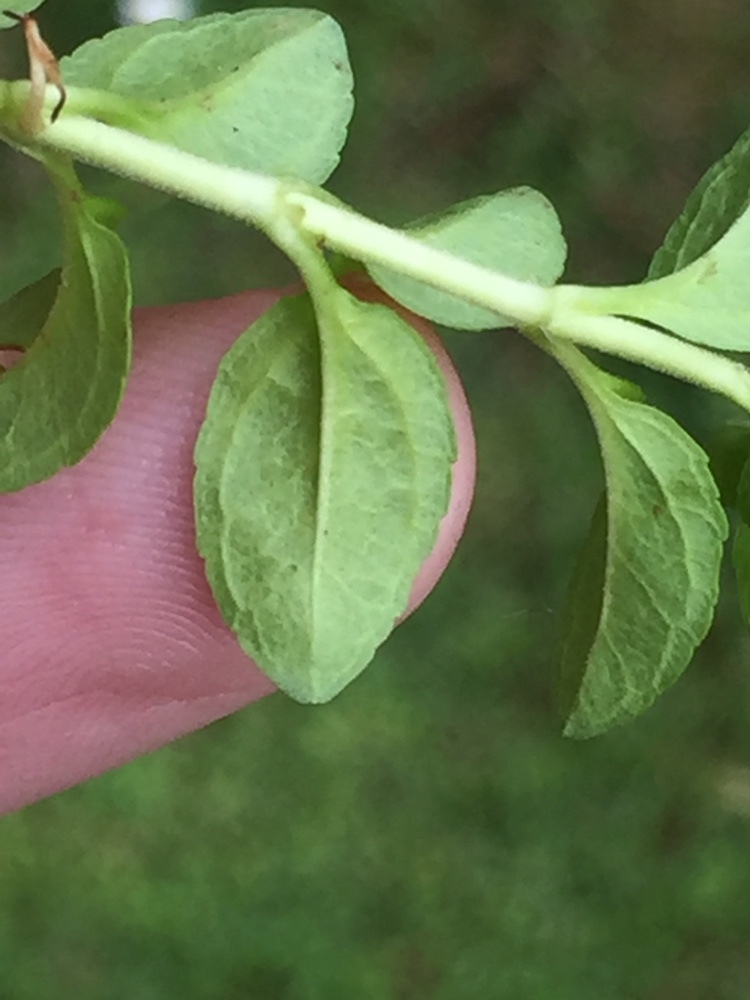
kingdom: Plantae
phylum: Tracheophyta
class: Magnoliopsida
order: Lamiales
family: Plantaginaceae
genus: Veronica
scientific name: Veronica serpyllifolia
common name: Thyme-leaved speedwell
